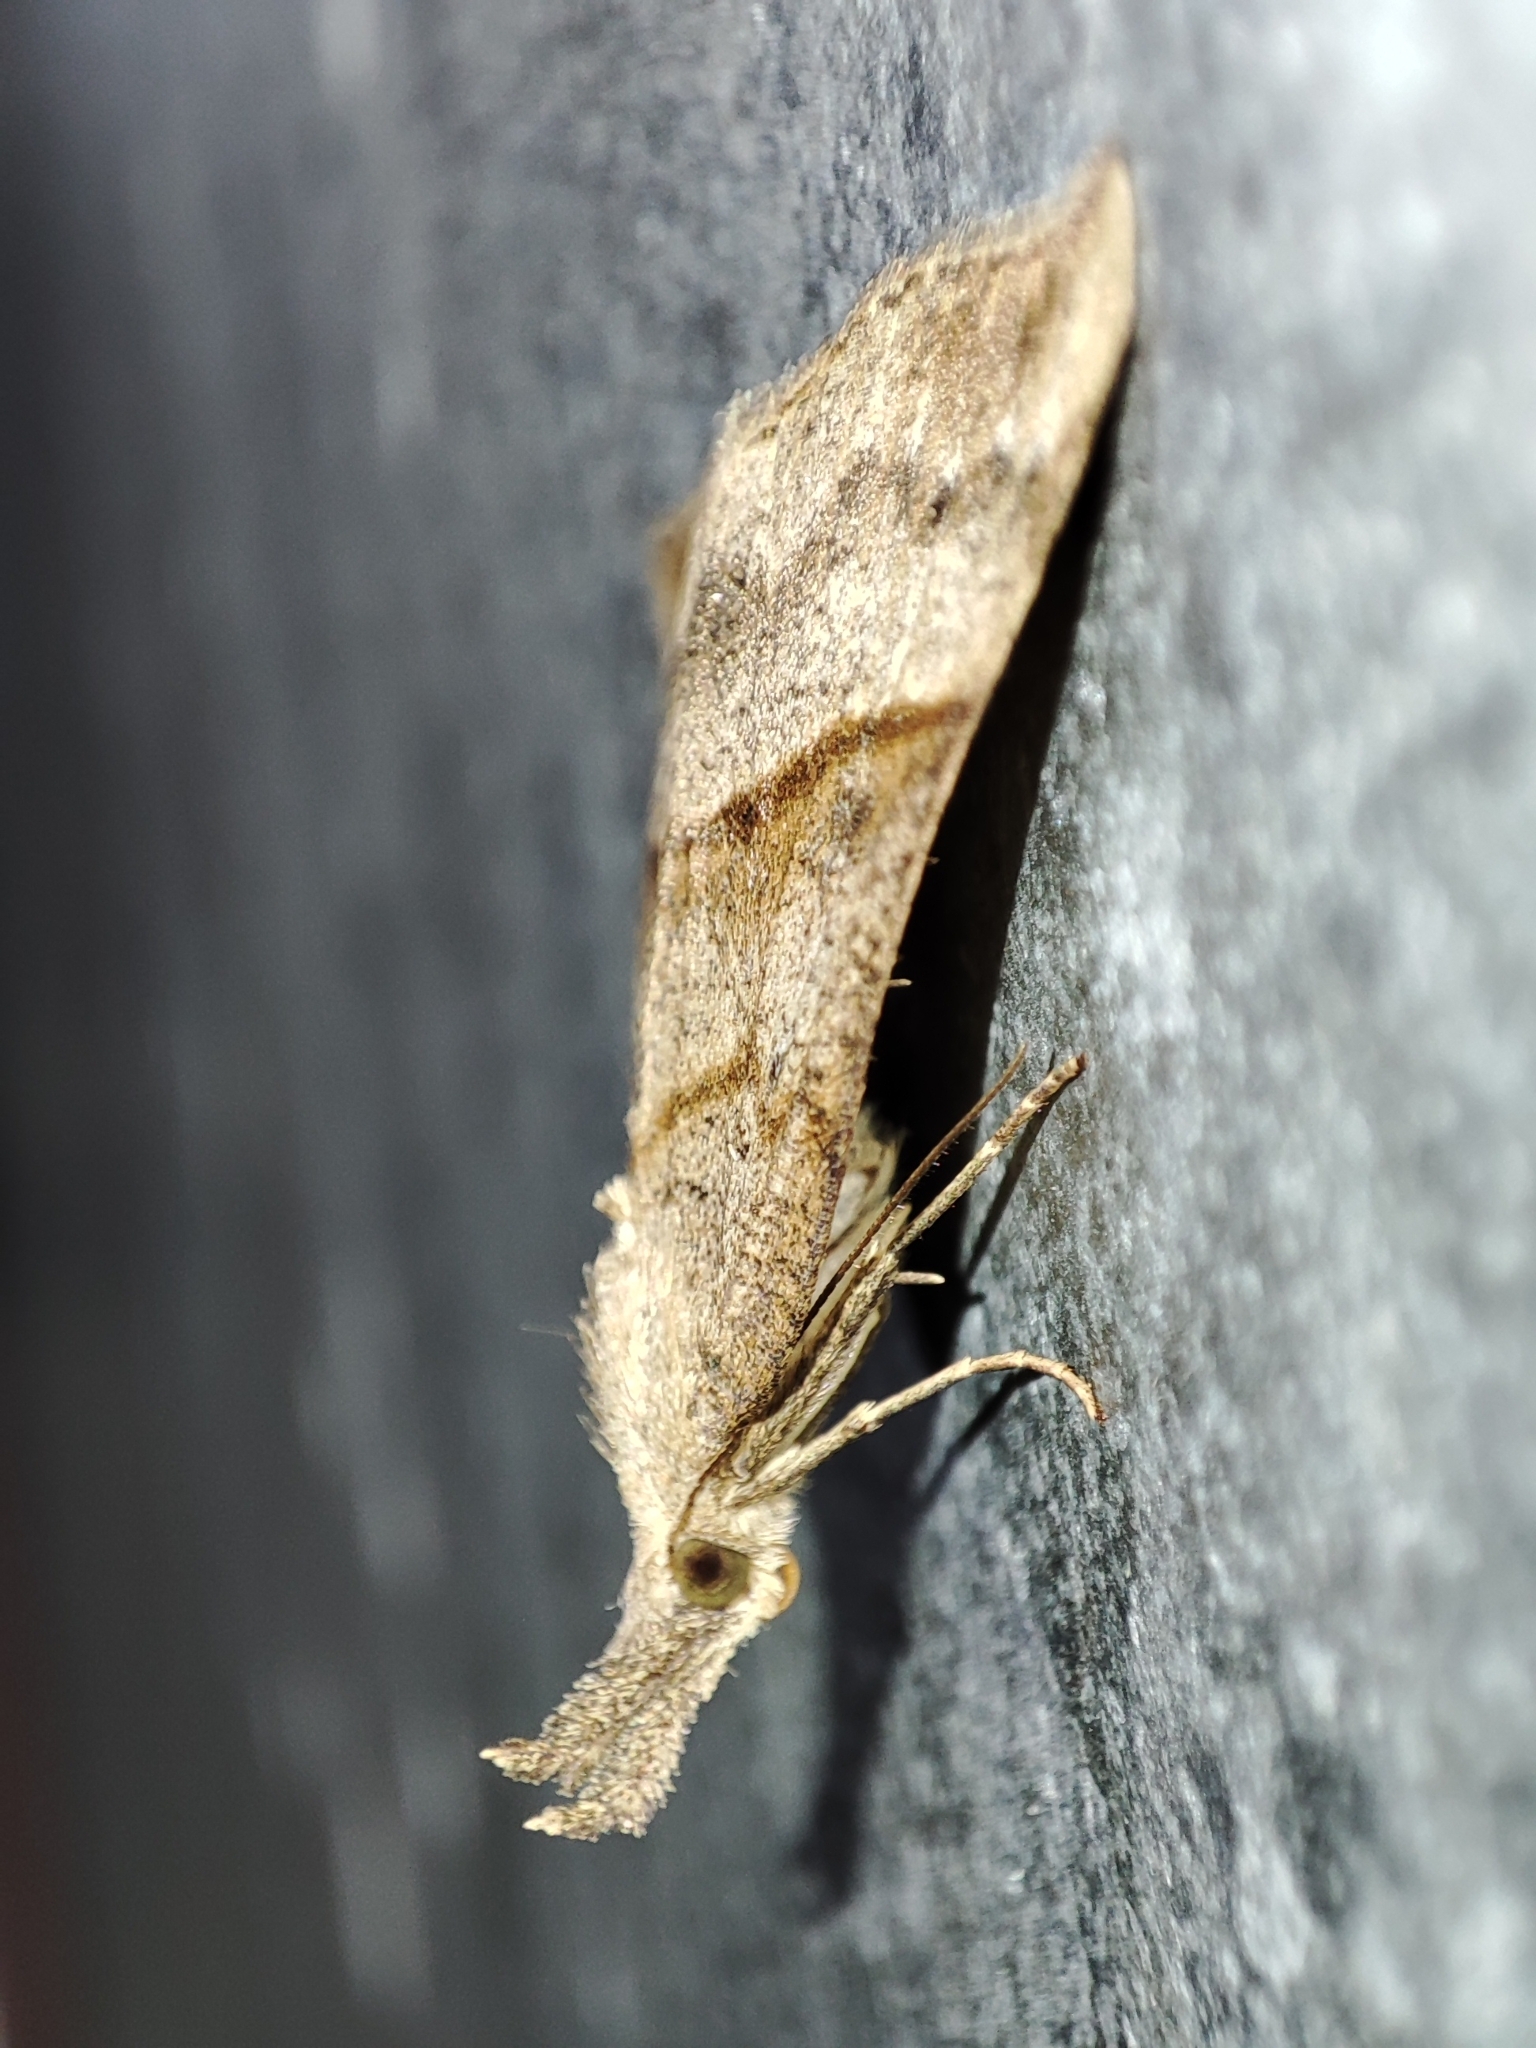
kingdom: Animalia
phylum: Arthropoda
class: Insecta
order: Lepidoptera
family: Erebidae
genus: Hypena
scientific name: Hypena proboscidalis
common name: Snout
